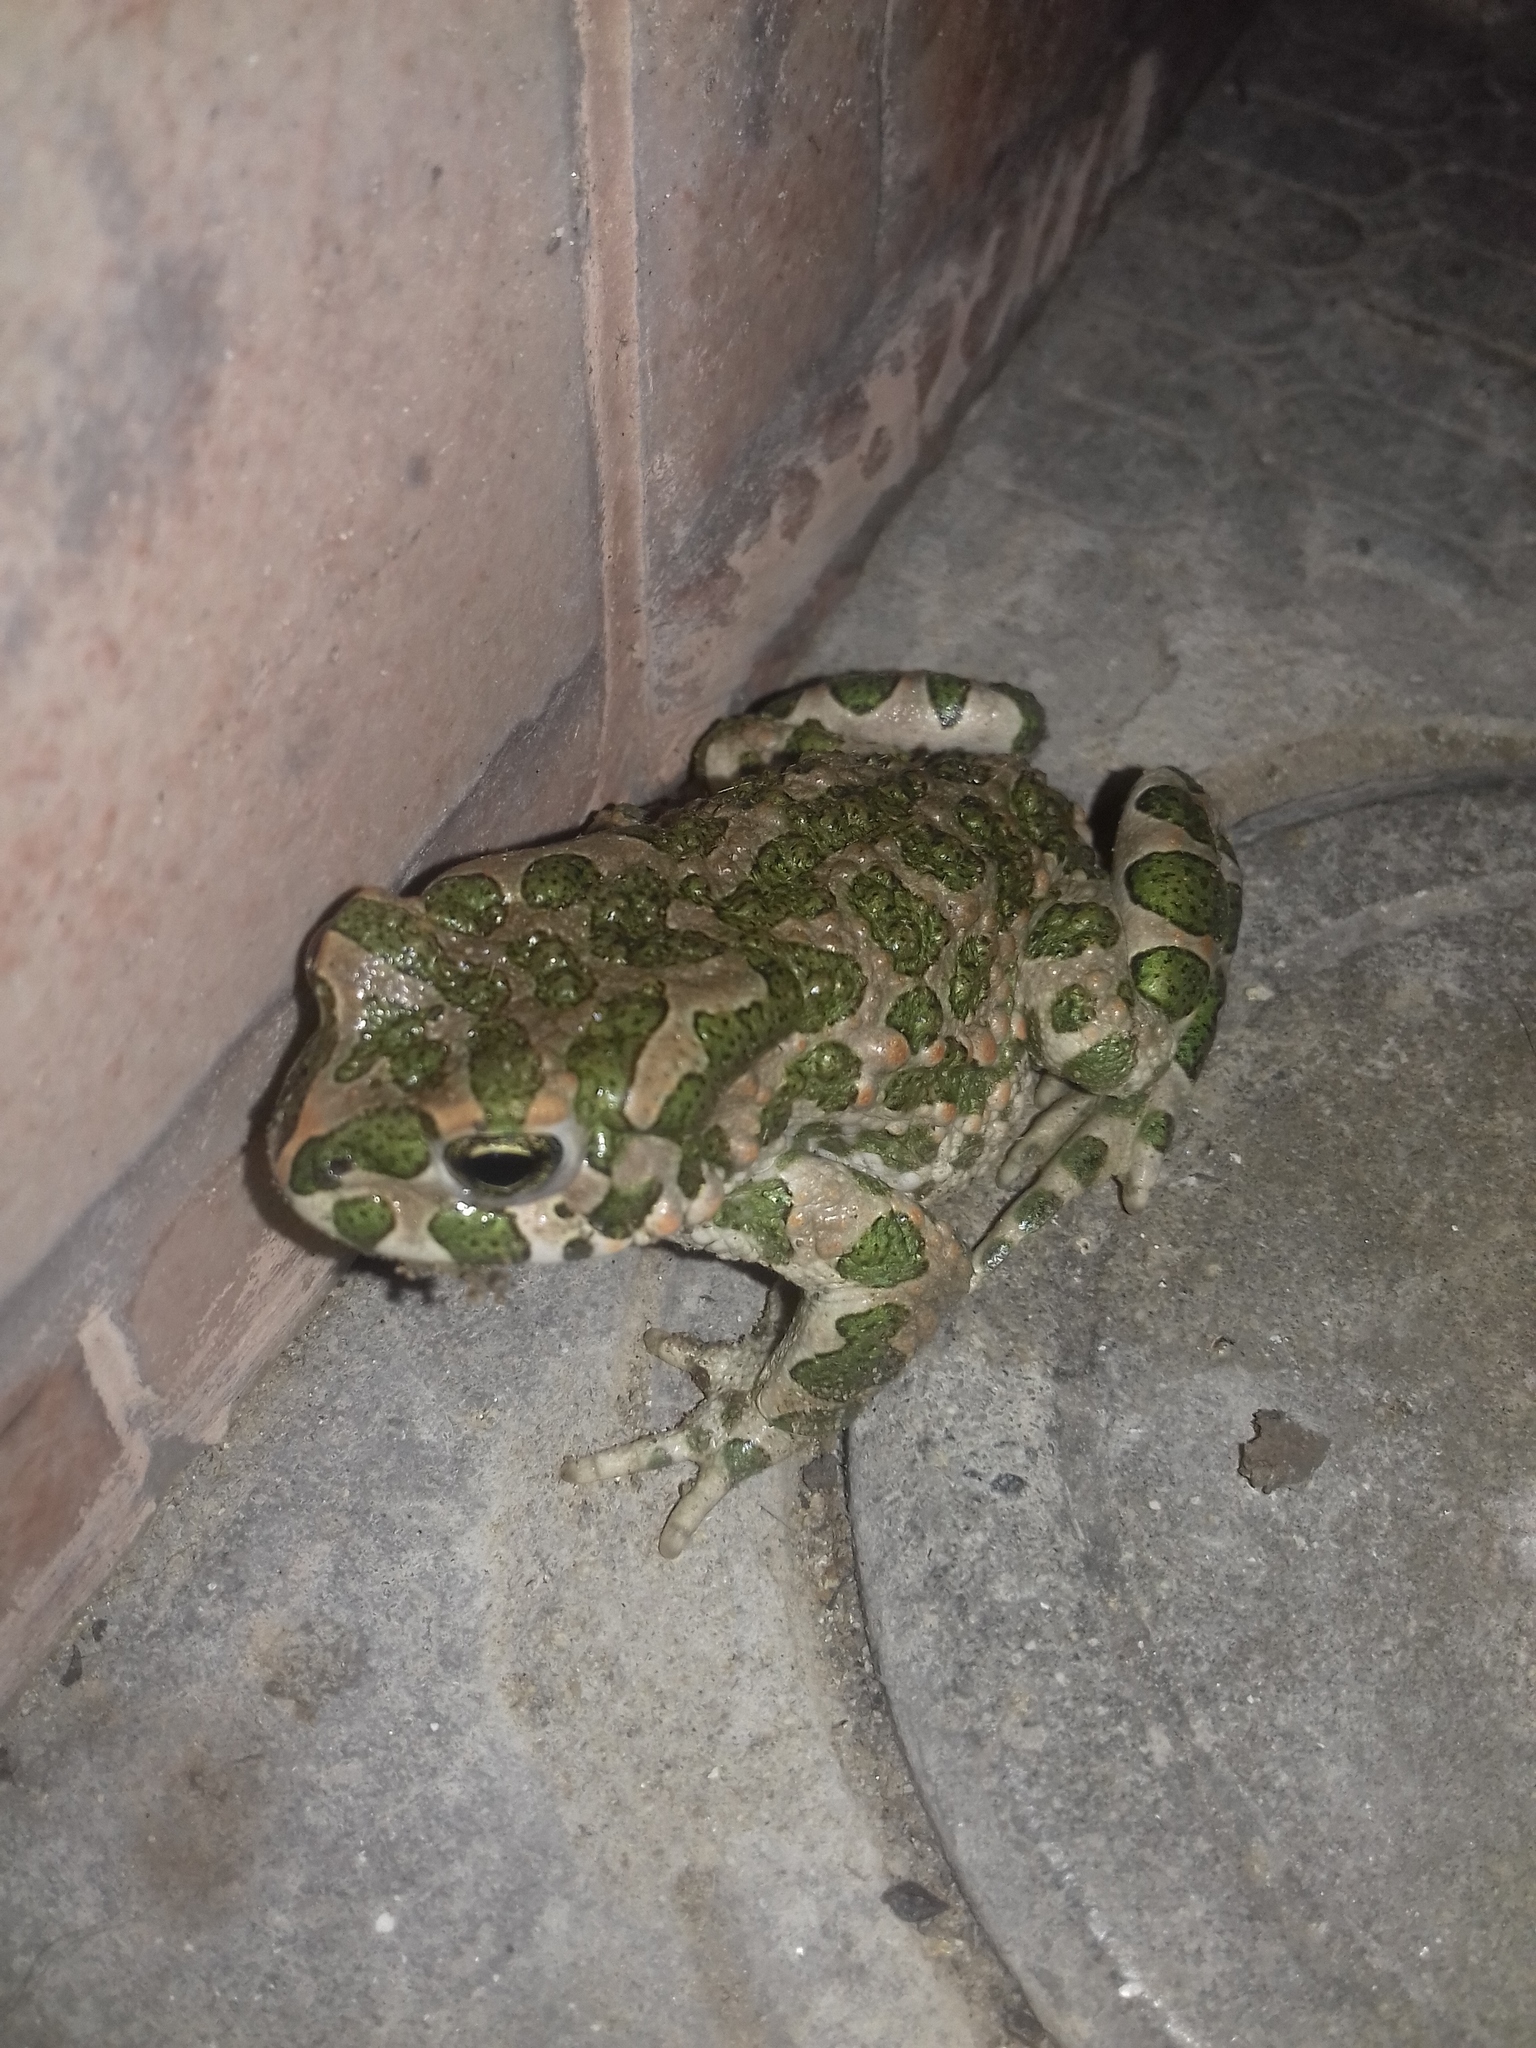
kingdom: Animalia
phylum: Chordata
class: Amphibia
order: Anura
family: Bufonidae
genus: Bufotes
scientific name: Bufotes viridis
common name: European green toad
